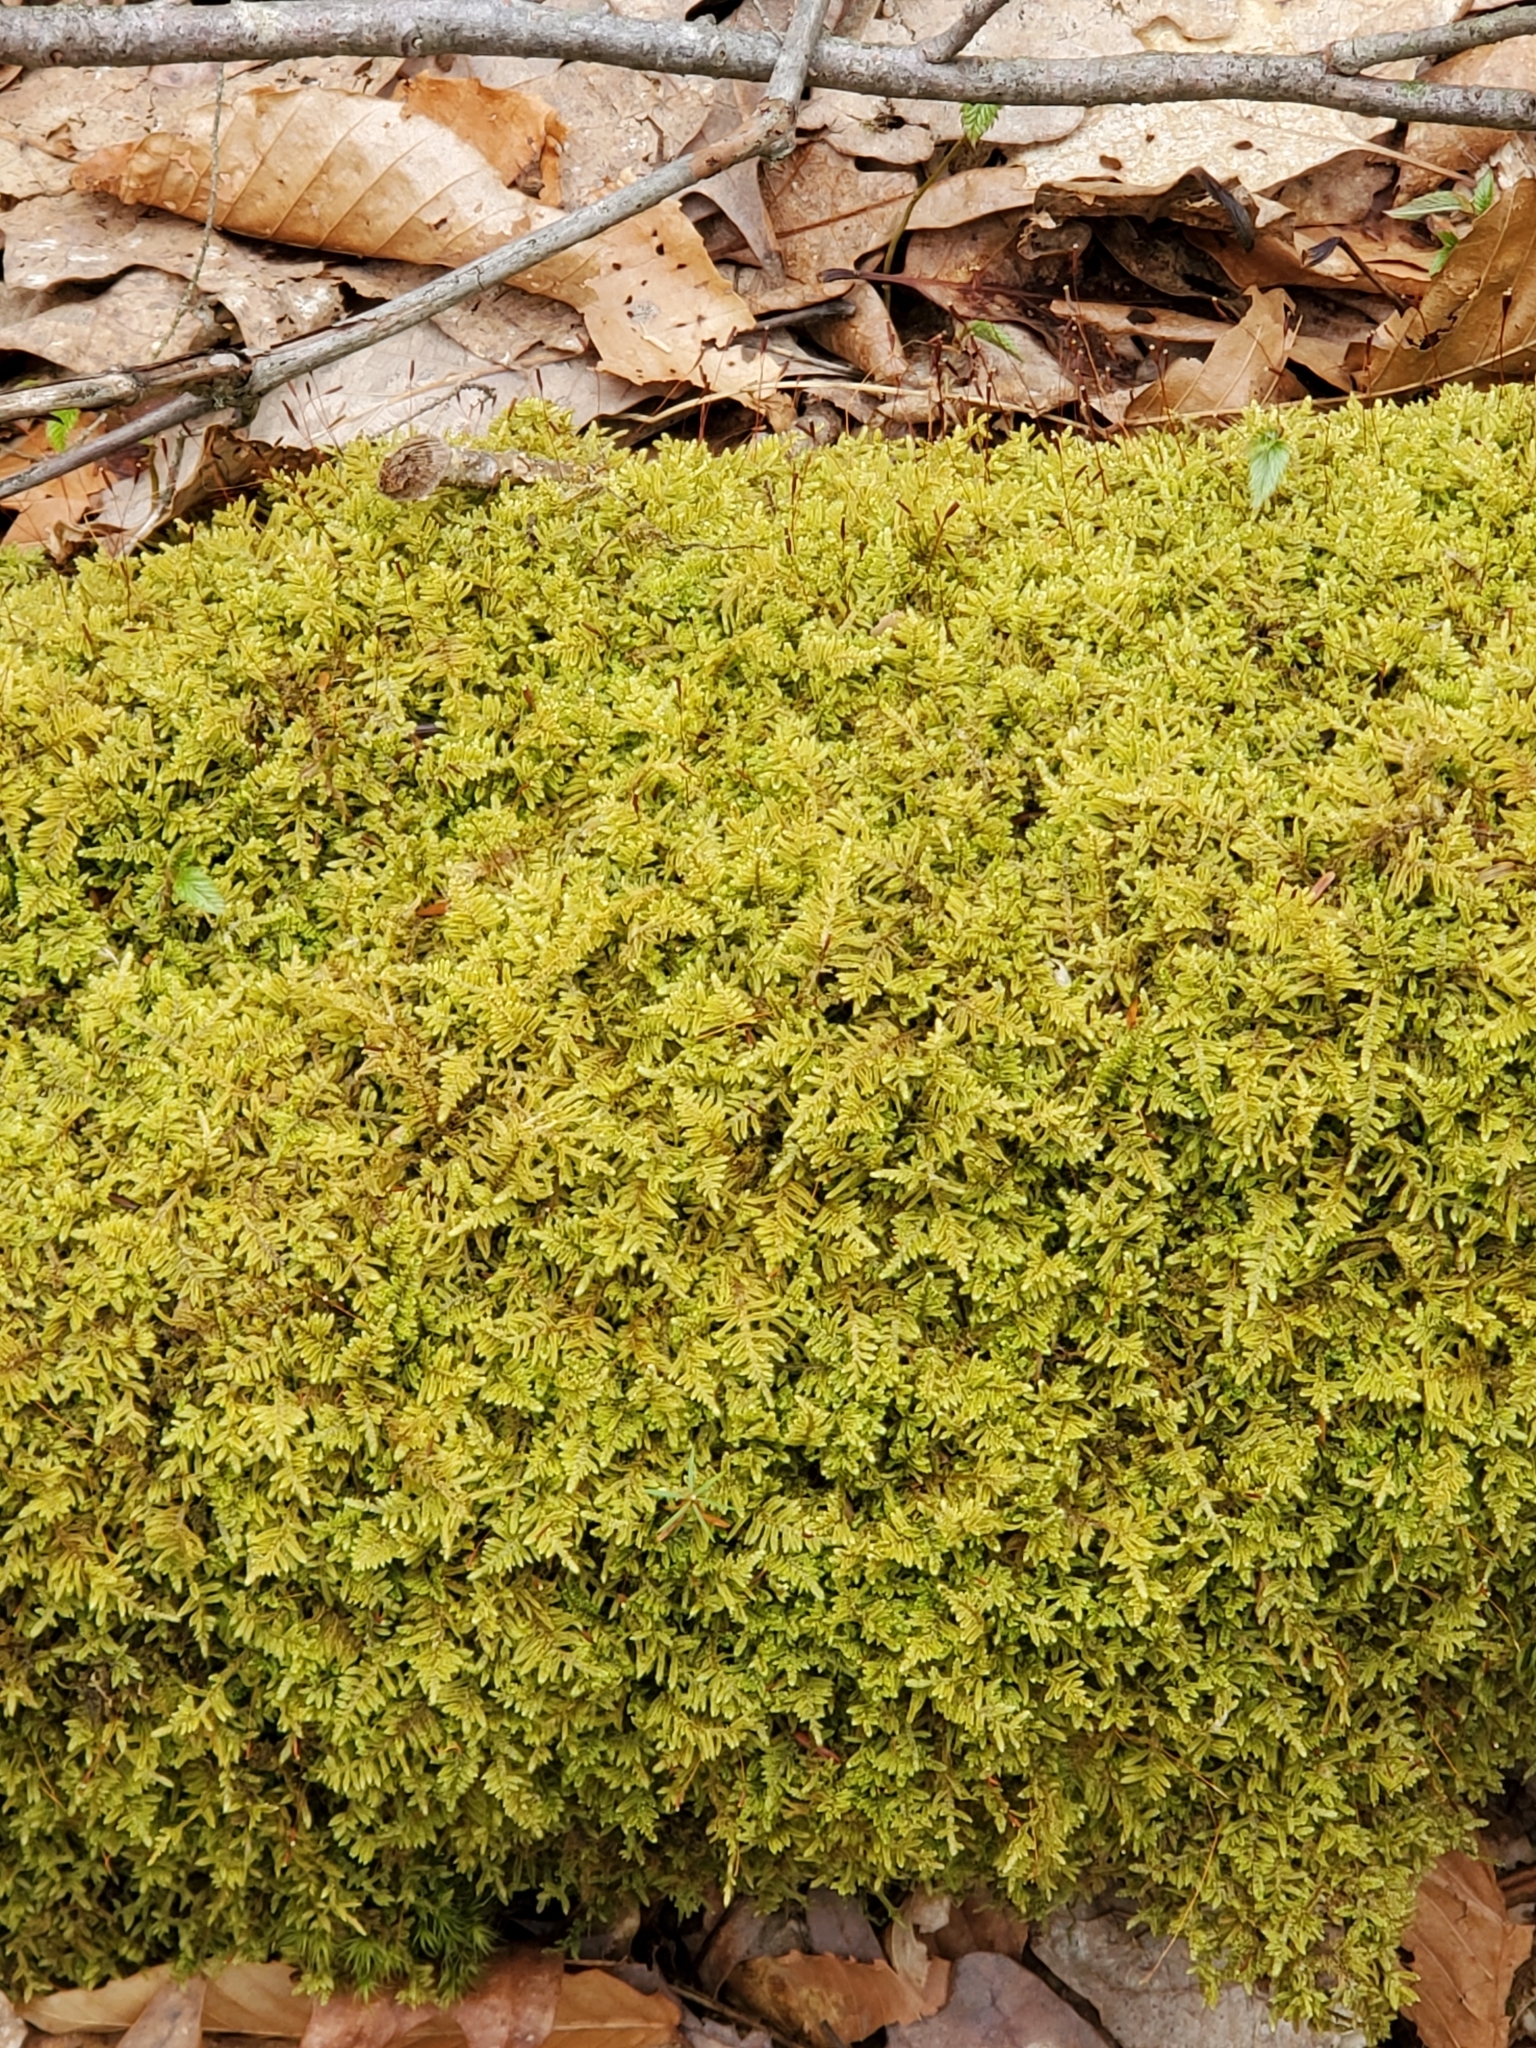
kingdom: Plantae
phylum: Bryophyta
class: Bryopsida
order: Hypnales
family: Callicladiaceae
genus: Callicladium
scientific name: Callicladium imponens
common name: Brocade moss
